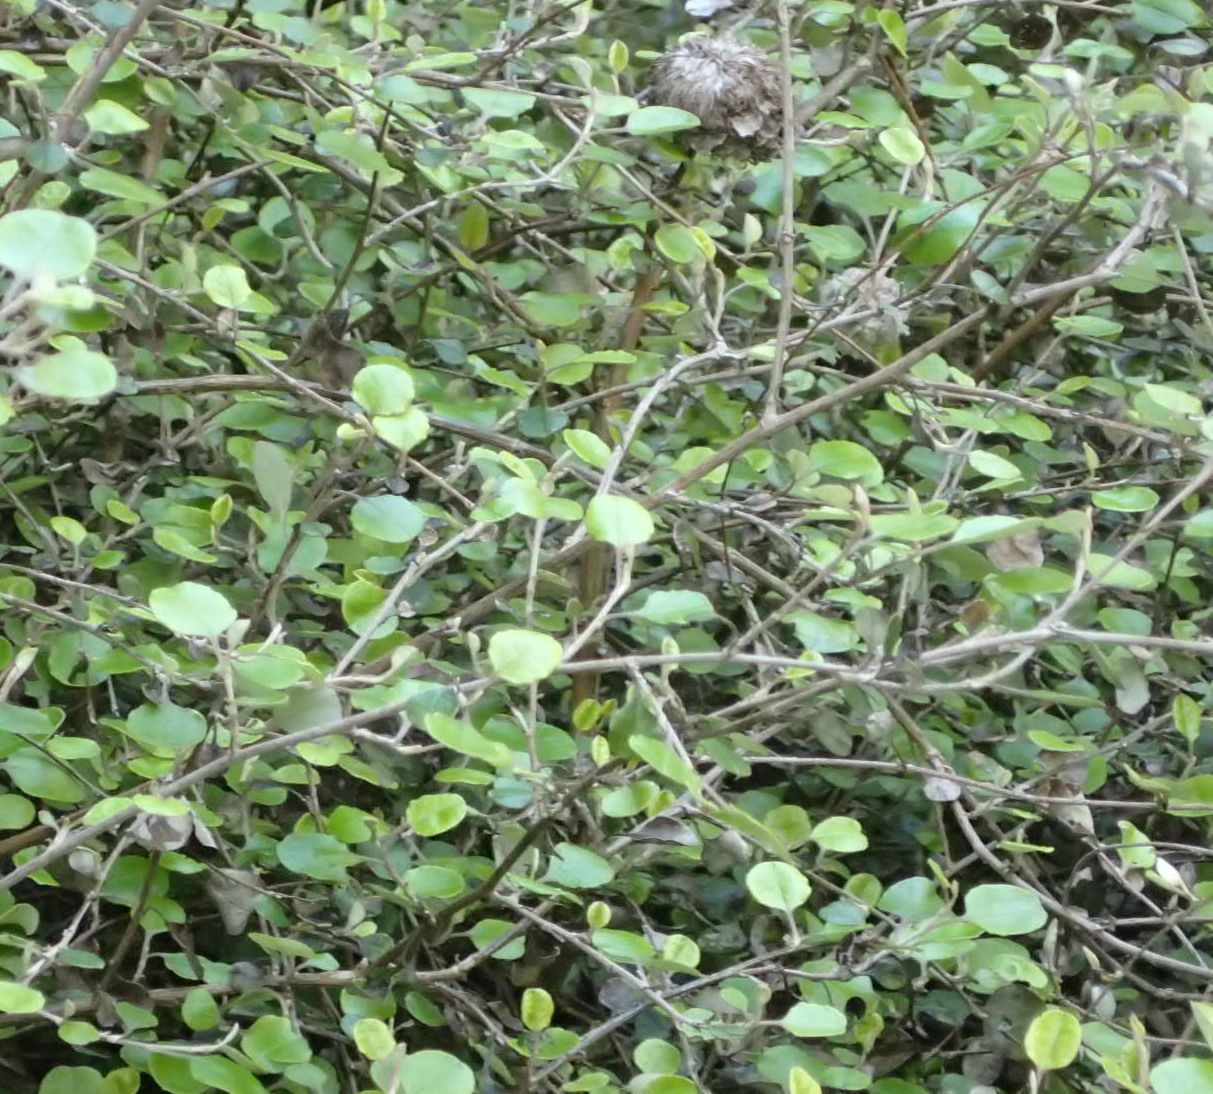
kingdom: Plantae
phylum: Tracheophyta
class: Magnoliopsida
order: Asterales
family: Asteraceae
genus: Ozothamnus
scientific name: Ozothamnus glomeratus
